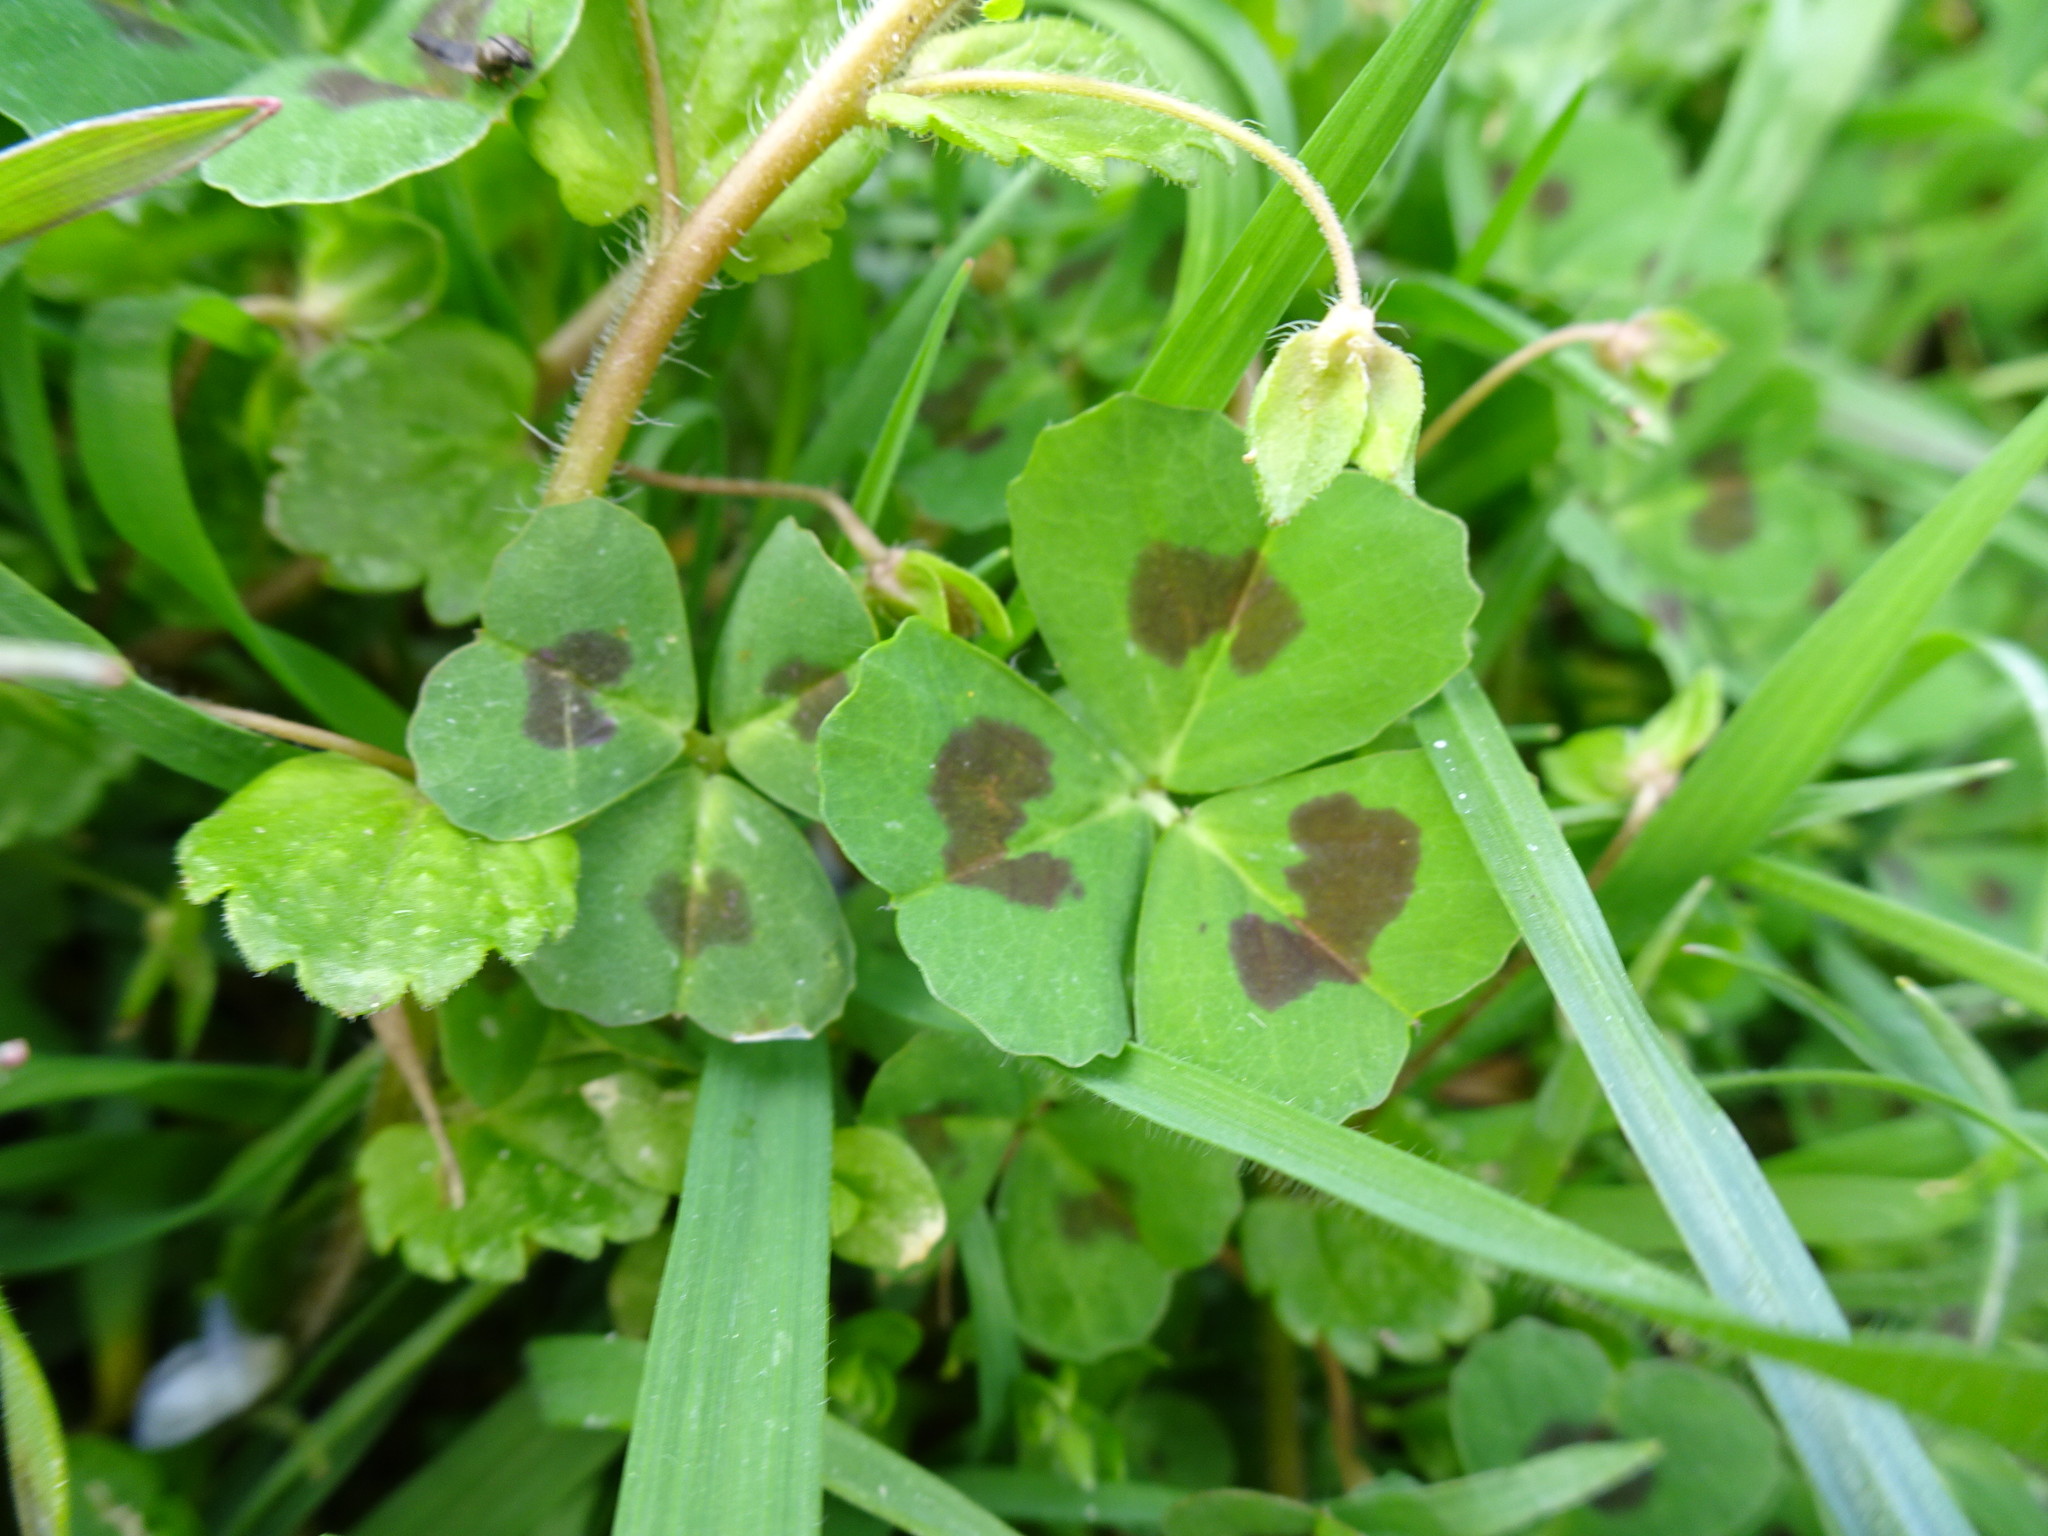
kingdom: Plantae
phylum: Tracheophyta
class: Magnoliopsida
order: Fabales
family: Fabaceae
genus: Medicago
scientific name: Medicago arabica
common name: Spotted medick
